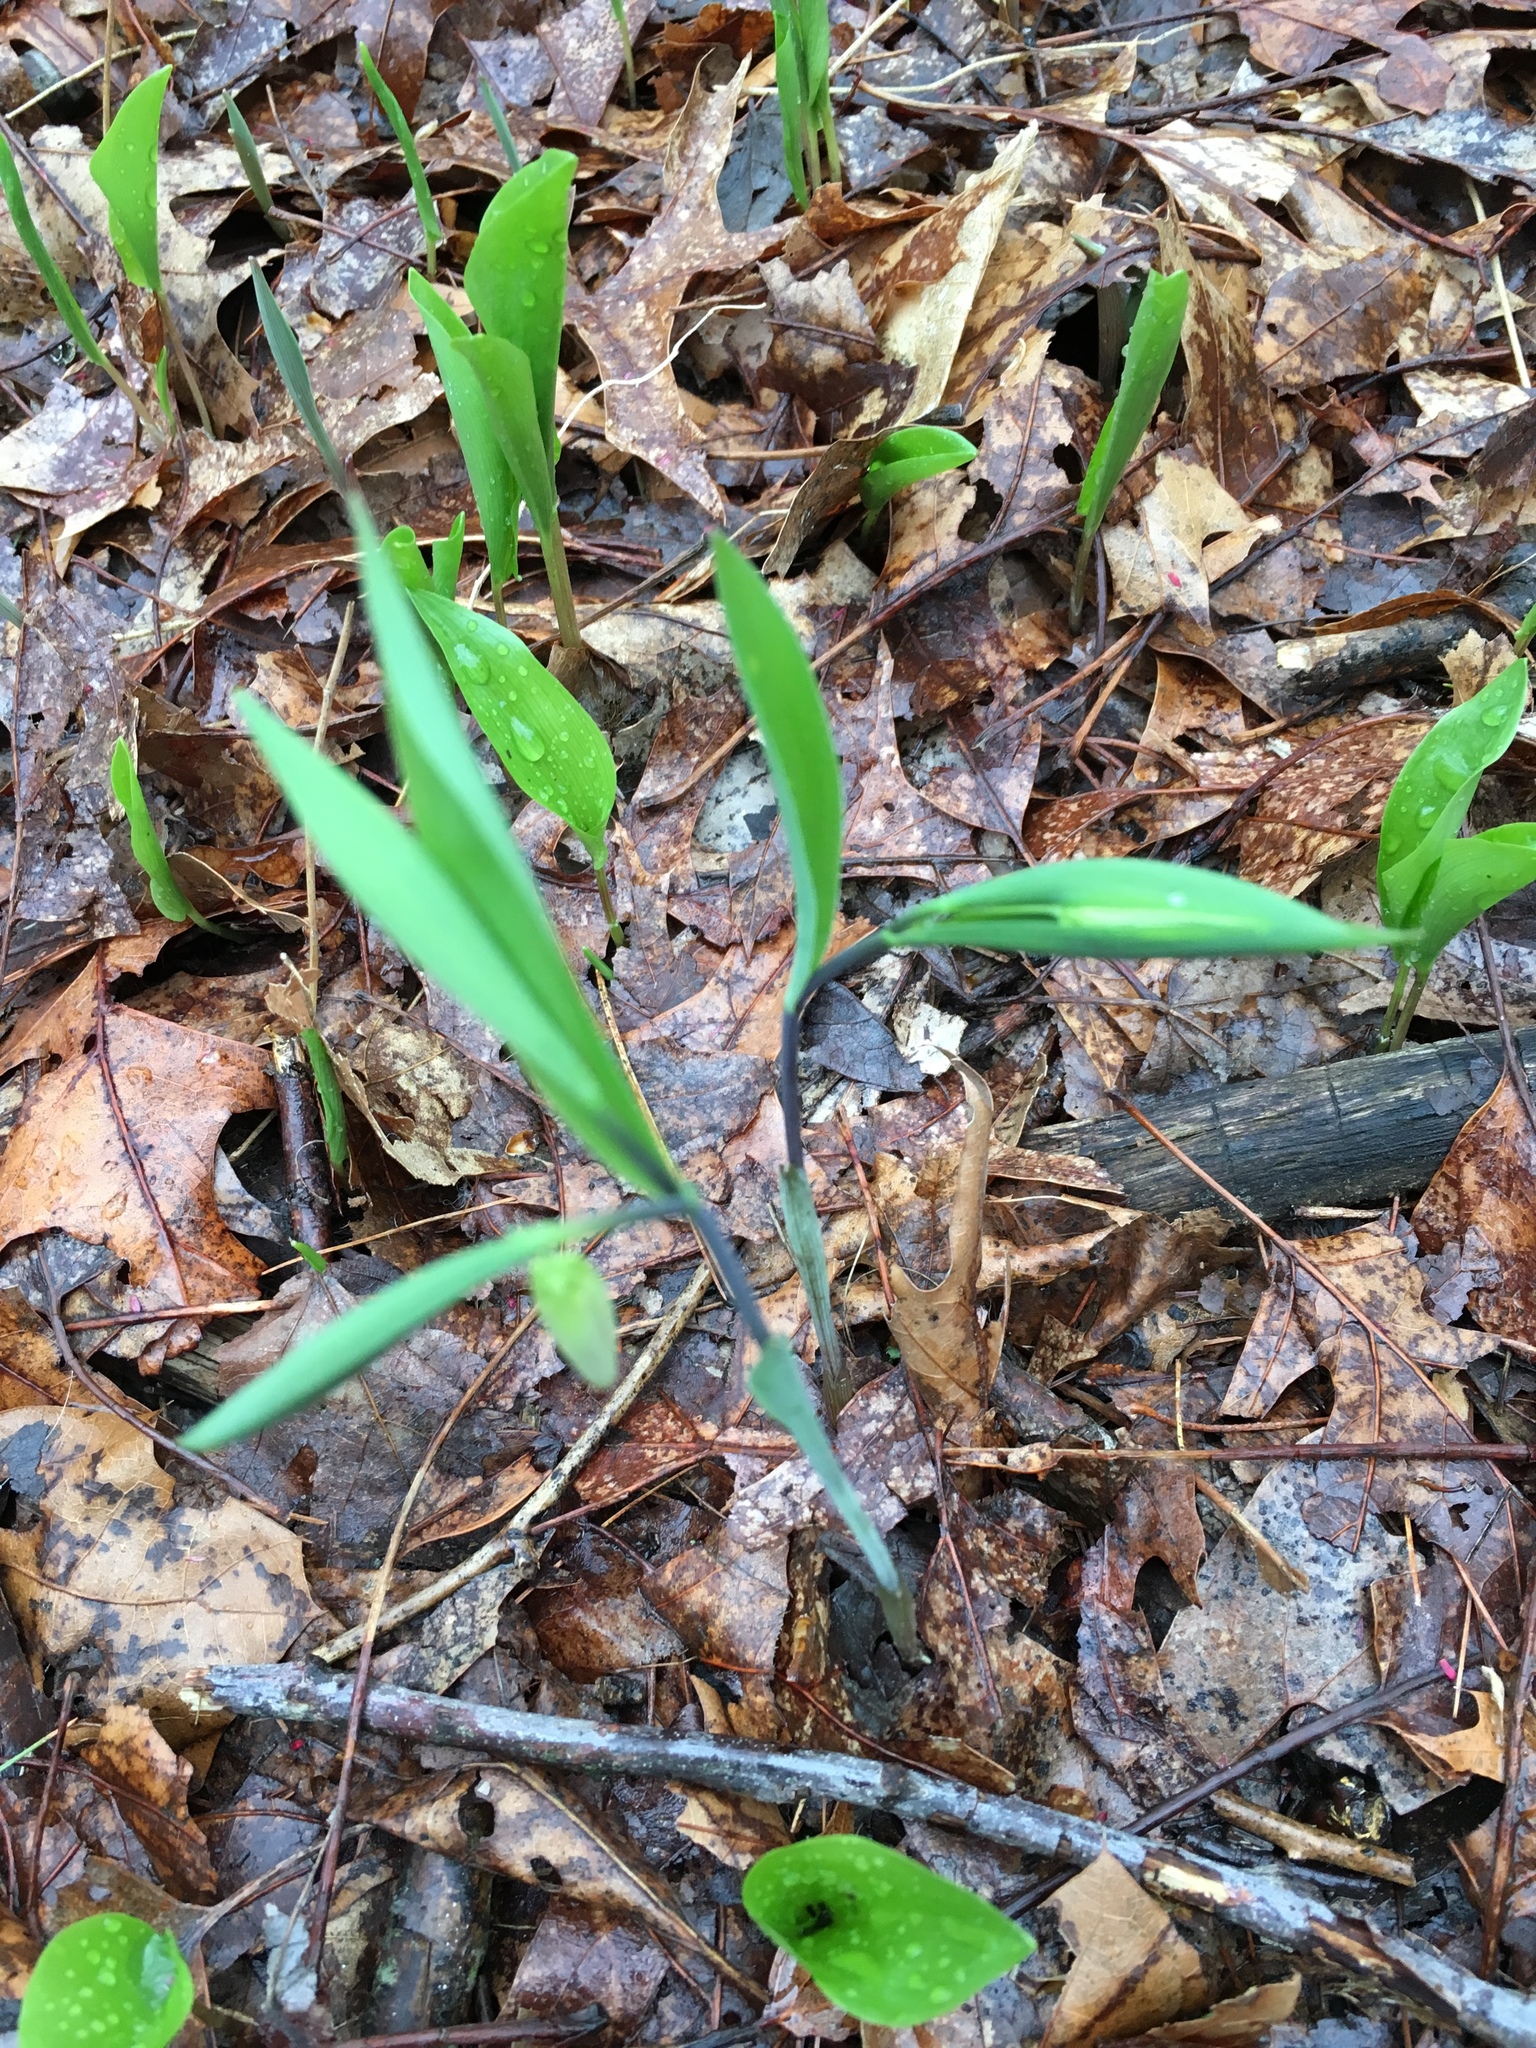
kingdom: Plantae
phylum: Tracheophyta
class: Liliopsida
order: Liliales
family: Colchicaceae
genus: Uvularia
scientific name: Uvularia sessilifolia
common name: Straw-lily
